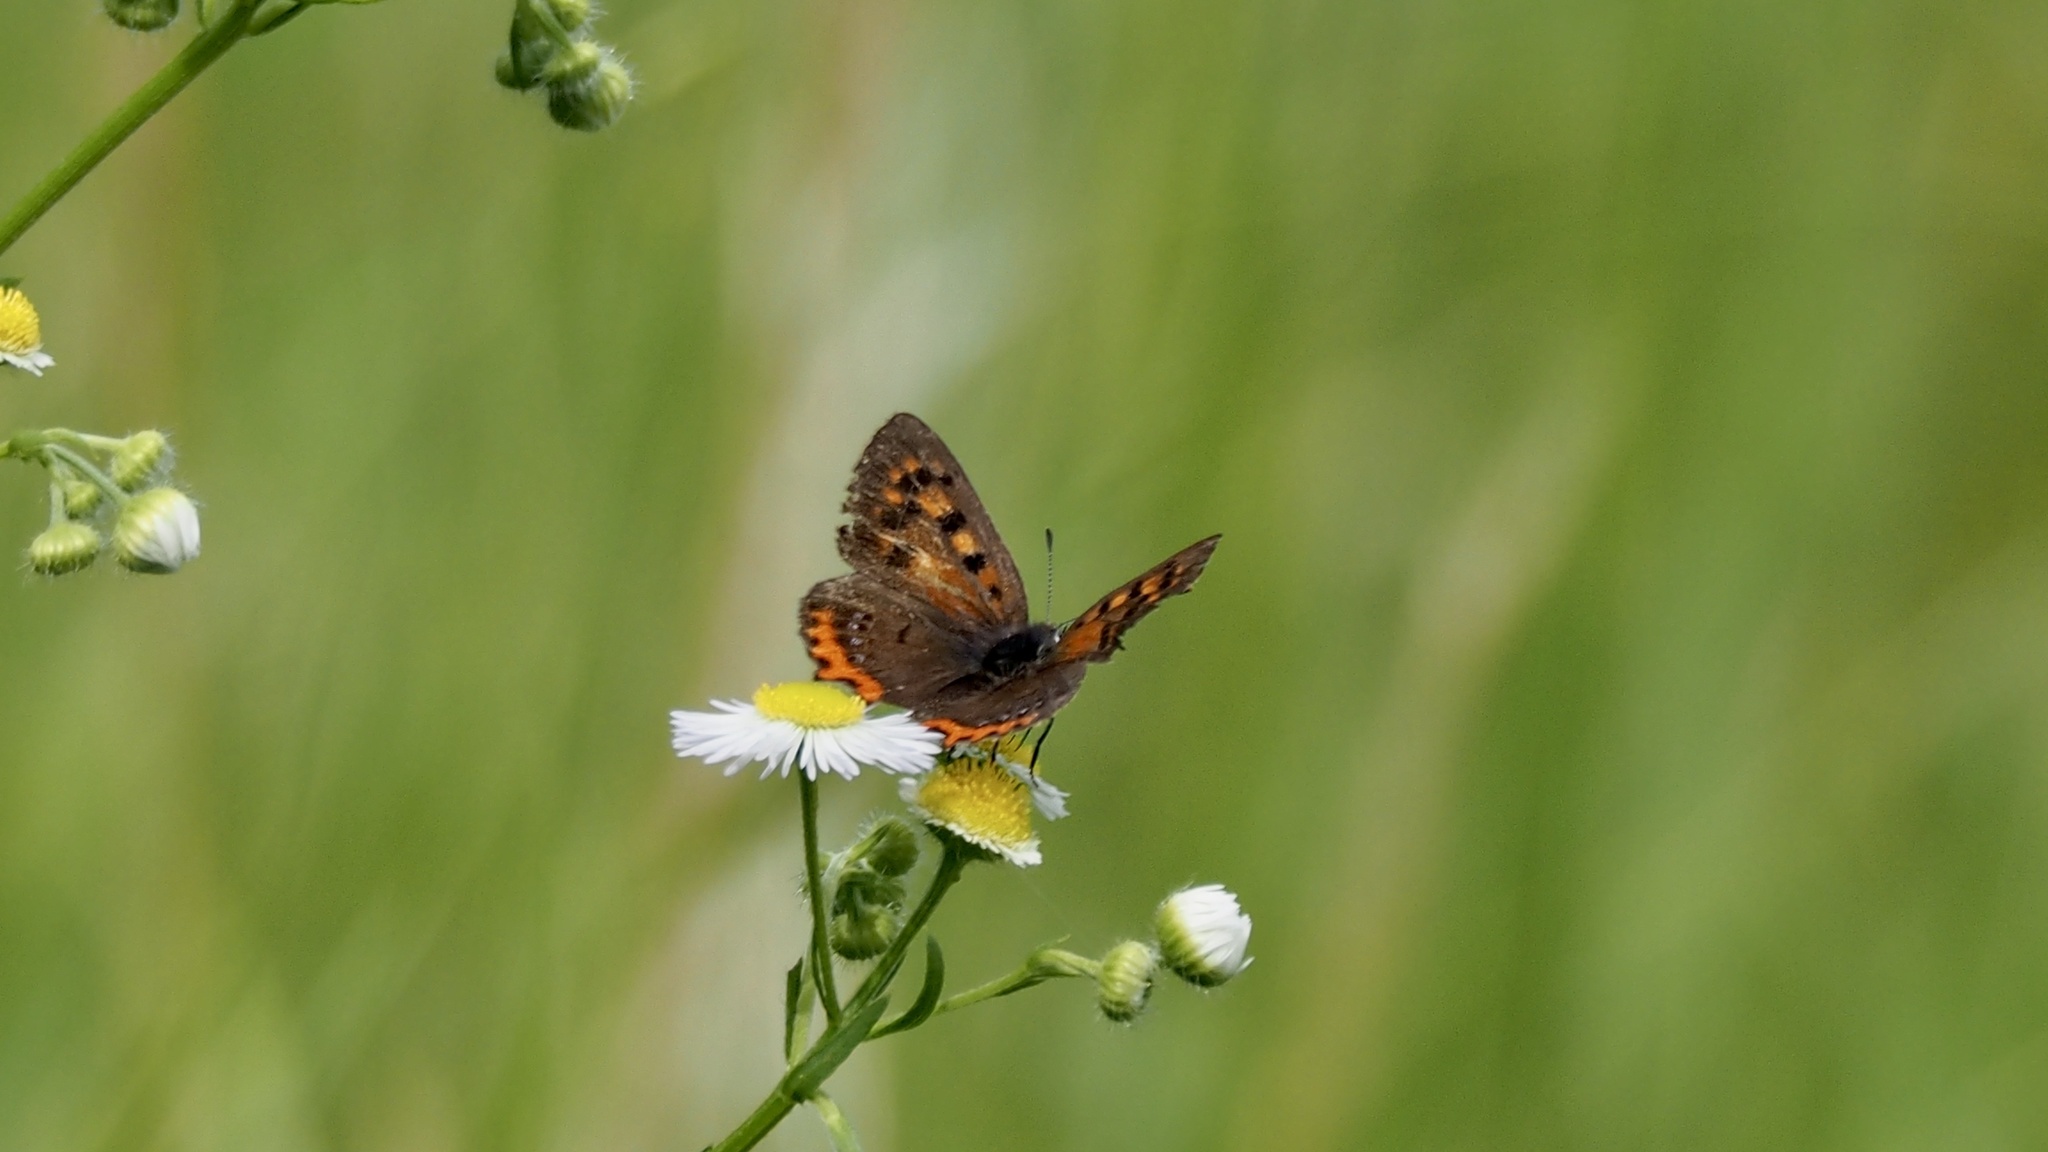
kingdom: Animalia
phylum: Arthropoda
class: Insecta
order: Lepidoptera
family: Lycaenidae
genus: Lycaena
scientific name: Lycaena phlaeas
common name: Small copper
